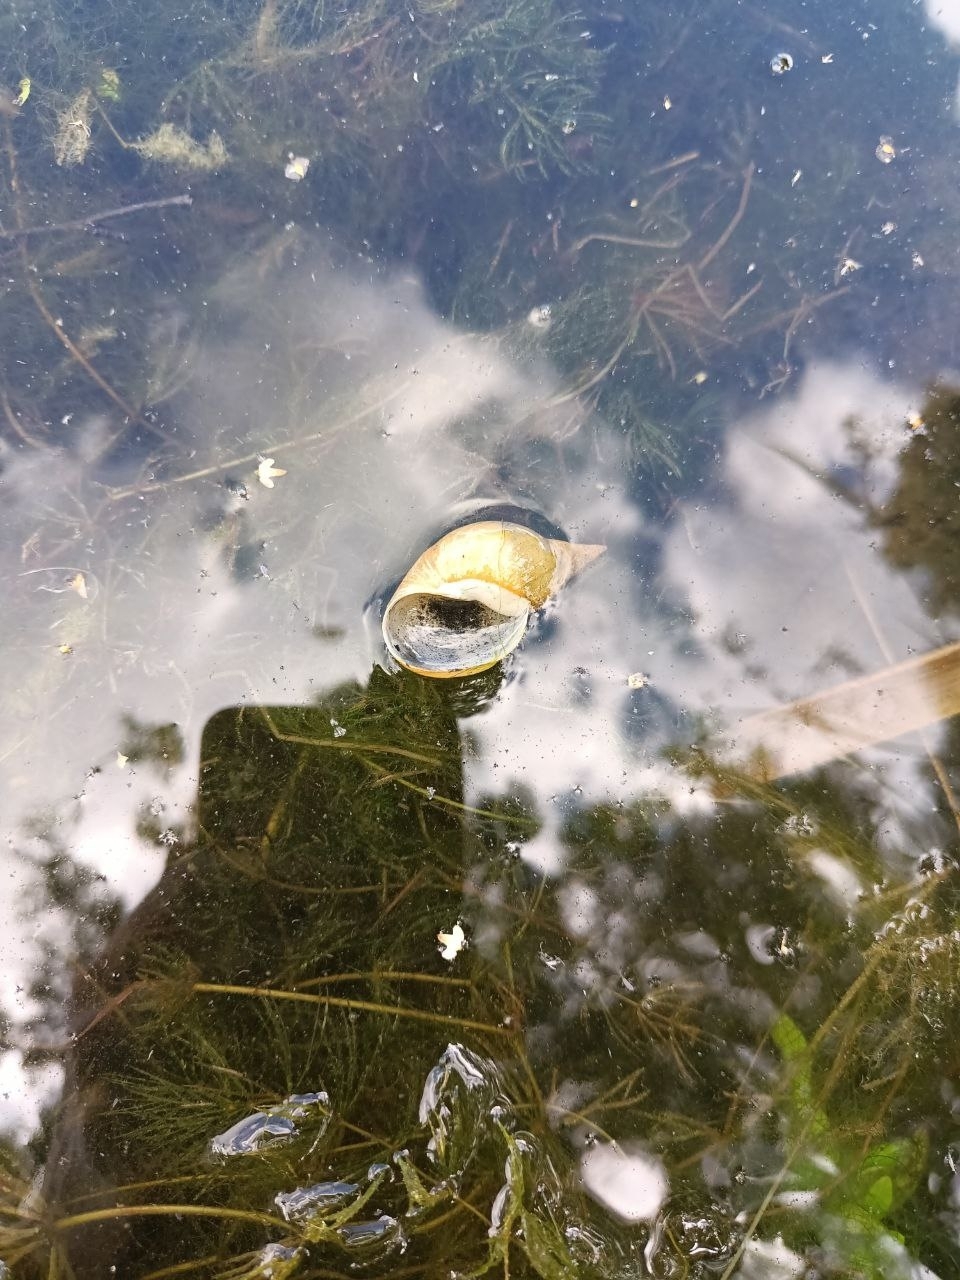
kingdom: Animalia
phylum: Mollusca
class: Gastropoda
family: Lymnaeidae
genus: Lymnaea
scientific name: Lymnaea stagnalis
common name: Great pond snail
